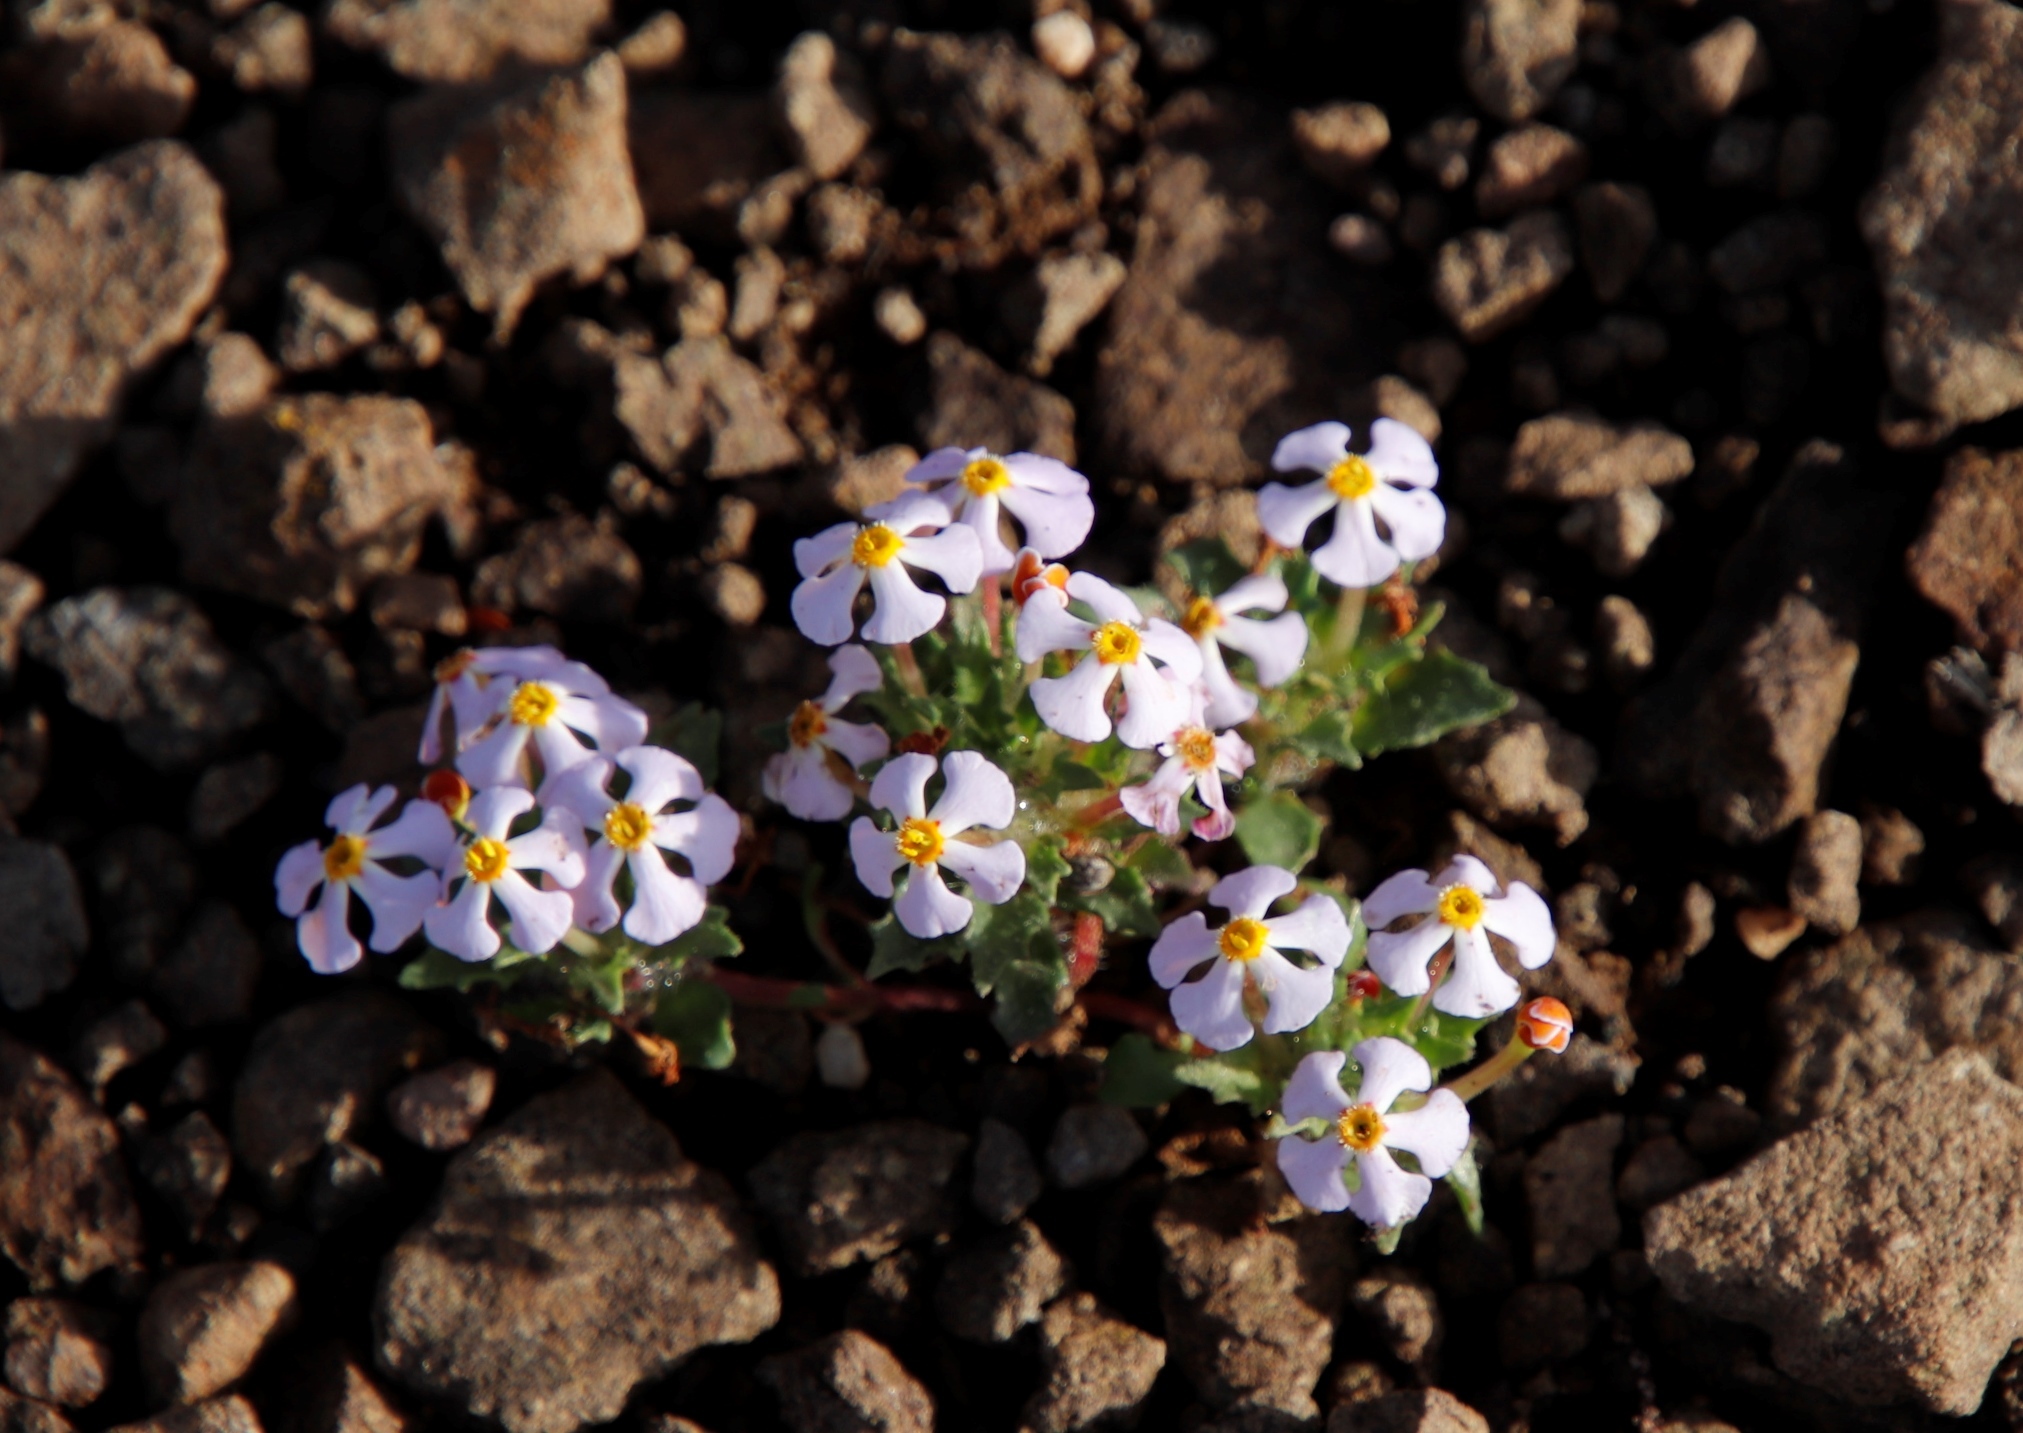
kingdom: Plantae
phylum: Tracheophyta
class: Magnoliopsida
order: Lamiales
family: Scrophulariaceae
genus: Zaluzianskya
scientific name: Zaluzianskya crocea
